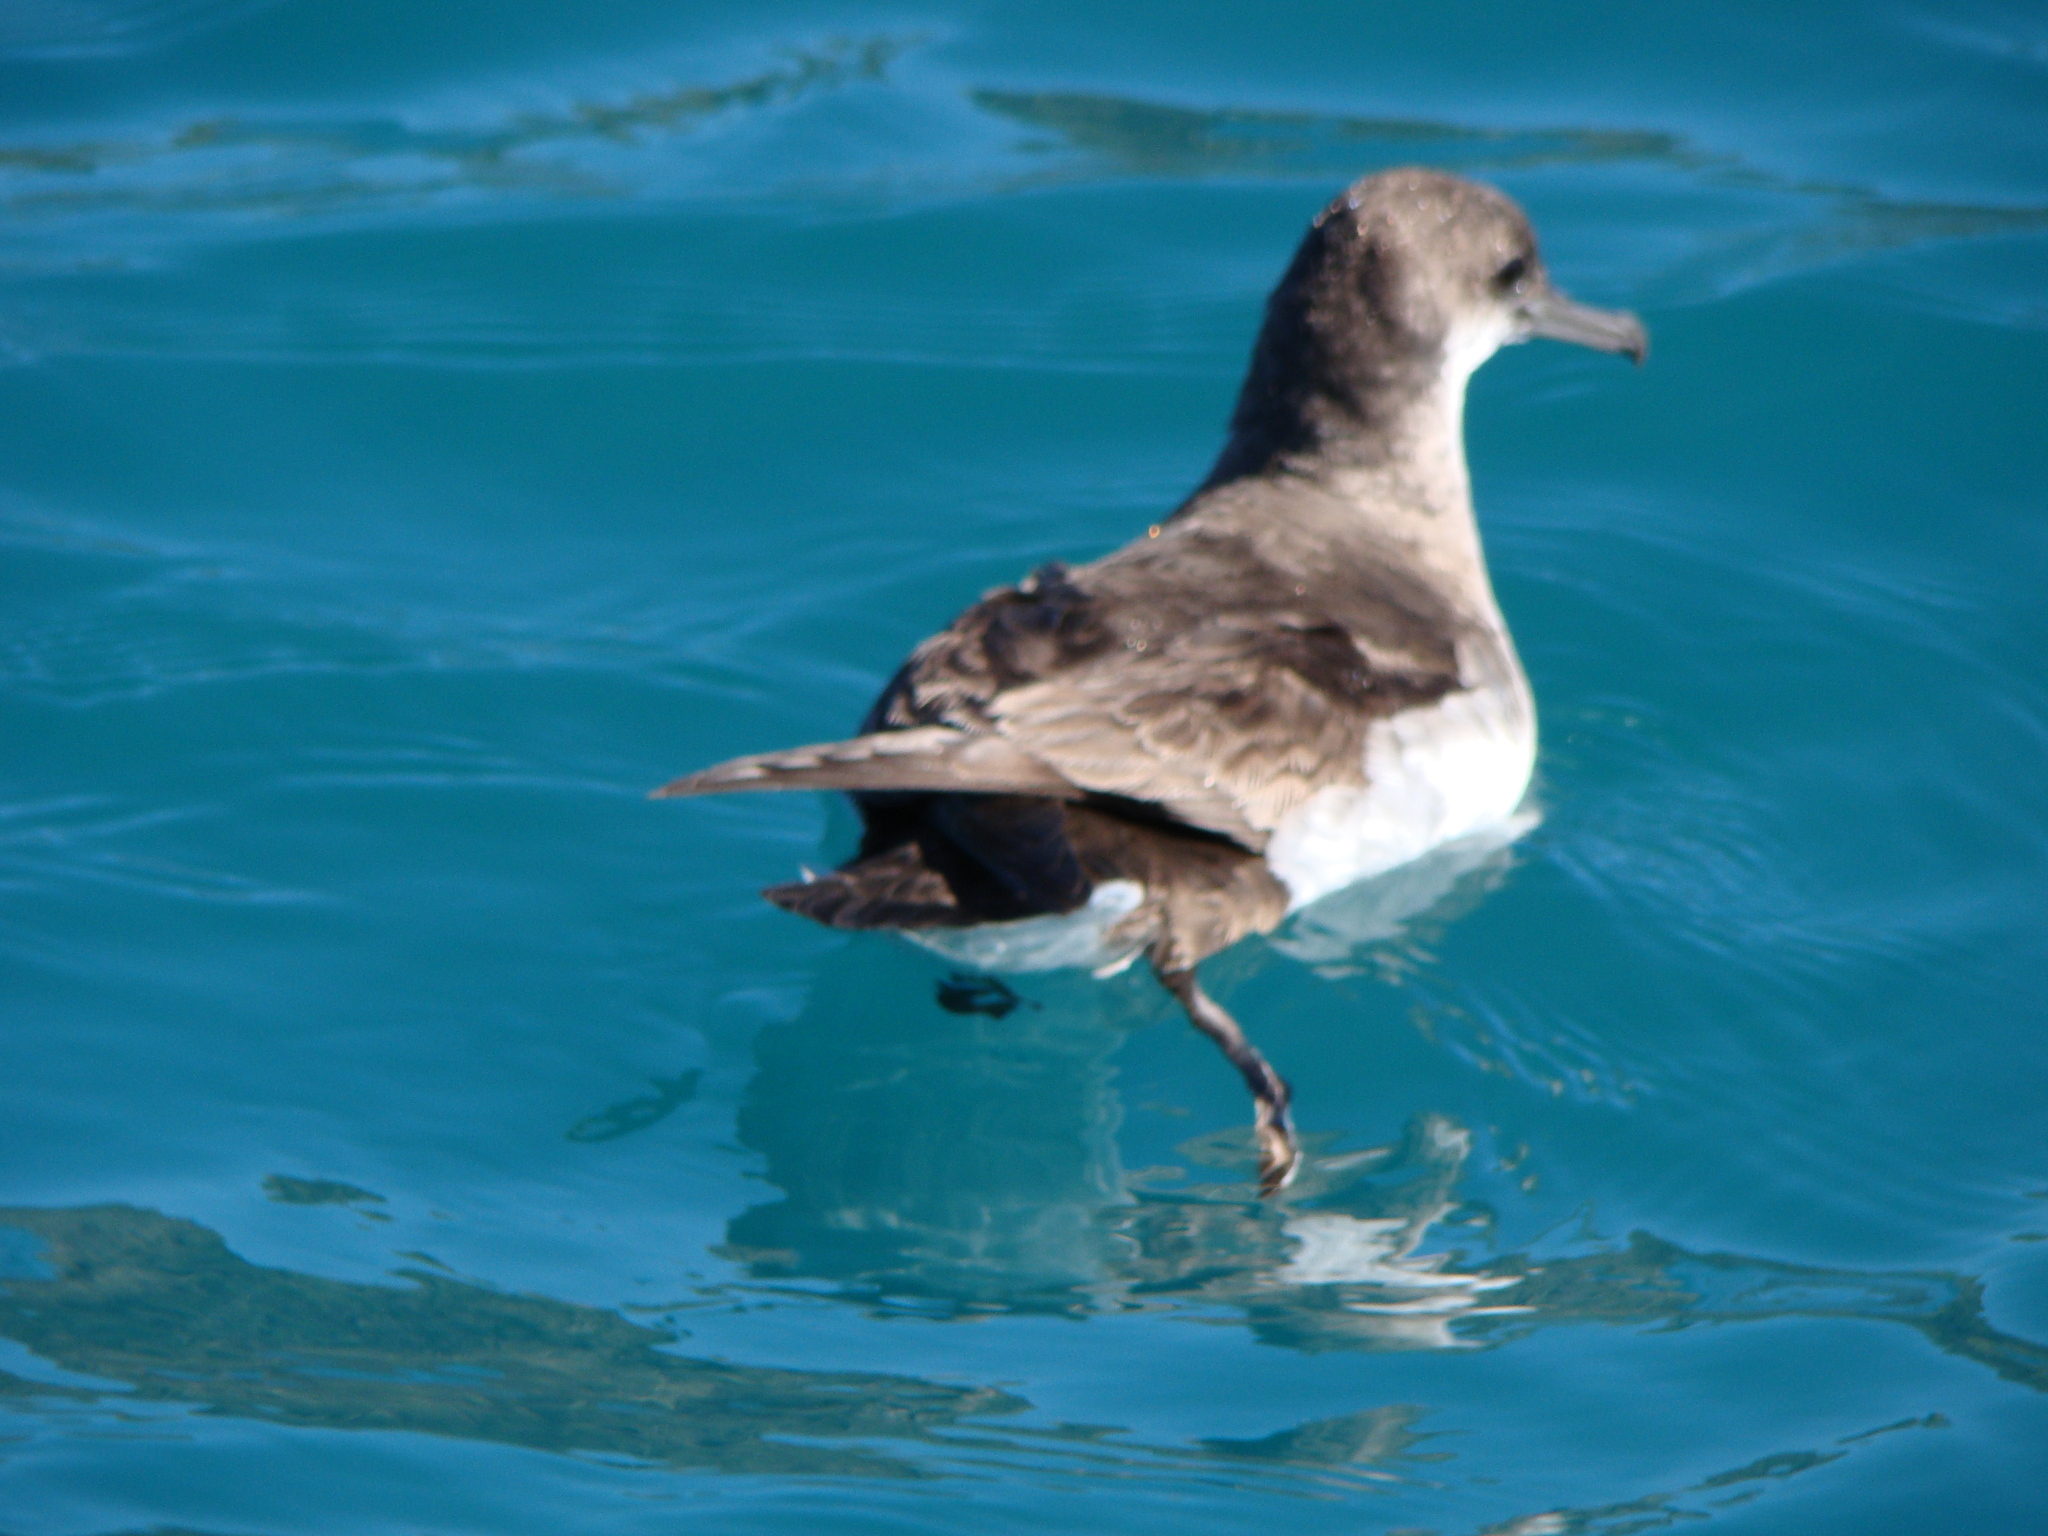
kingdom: Animalia
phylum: Chordata
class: Aves
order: Procellariiformes
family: Procellariidae
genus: Puffinus
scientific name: Puffinus gavia
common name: Fluttering shearwater
